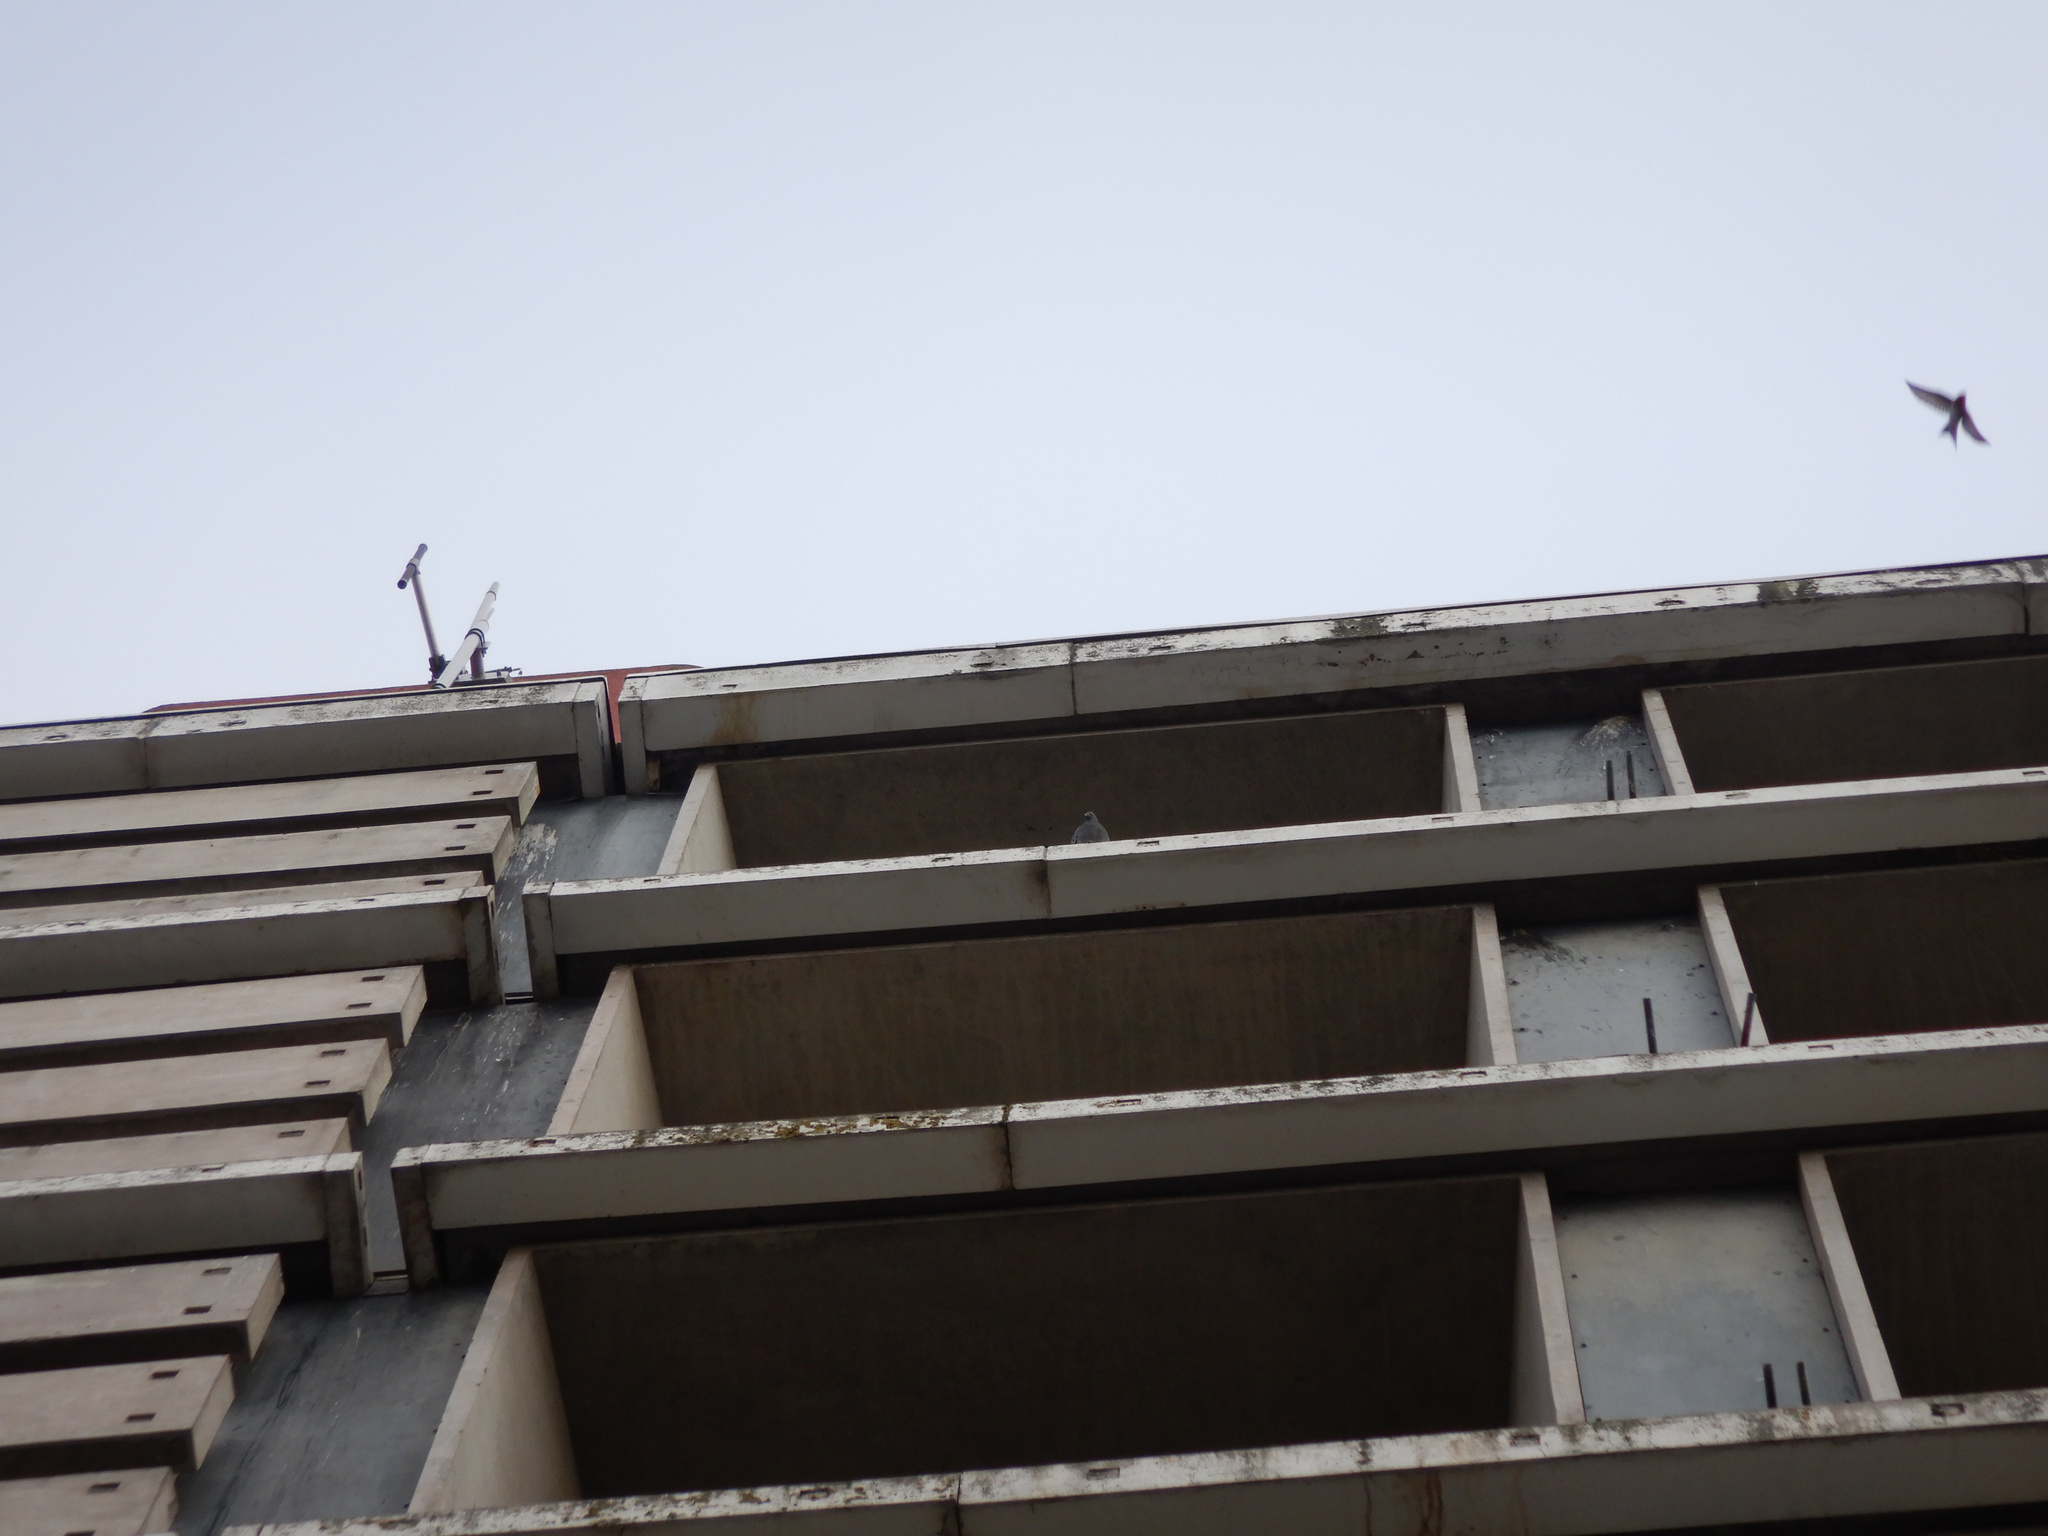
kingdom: Animalia
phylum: Chordata
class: Aves
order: Columbiformes
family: Columbidae
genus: Columba
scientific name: Columba livia
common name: Rock pigeon
